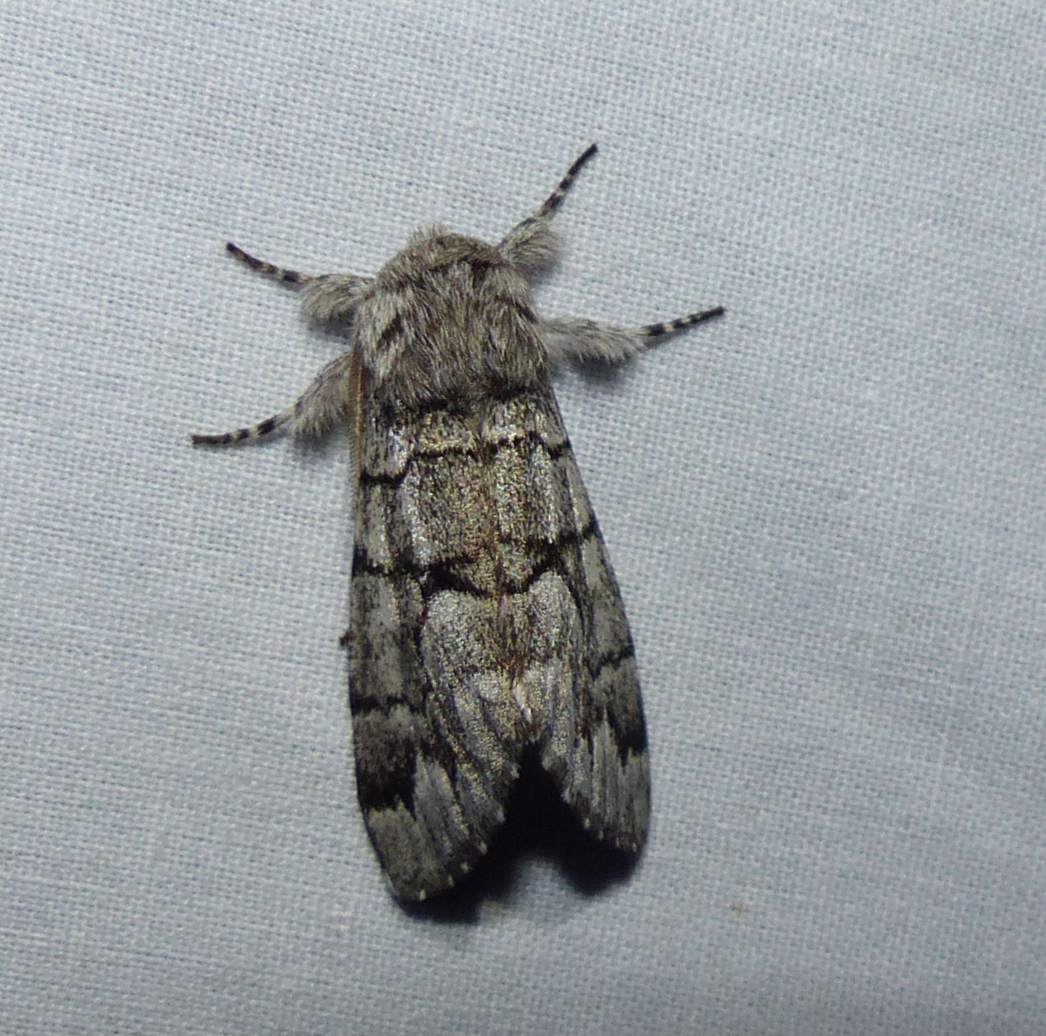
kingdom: Animalia
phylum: Arthropoda
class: Insecta
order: Lepidoptera
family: Noctuidae
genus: Panthea
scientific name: Panthea furcilla
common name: Eastern panthea moth
